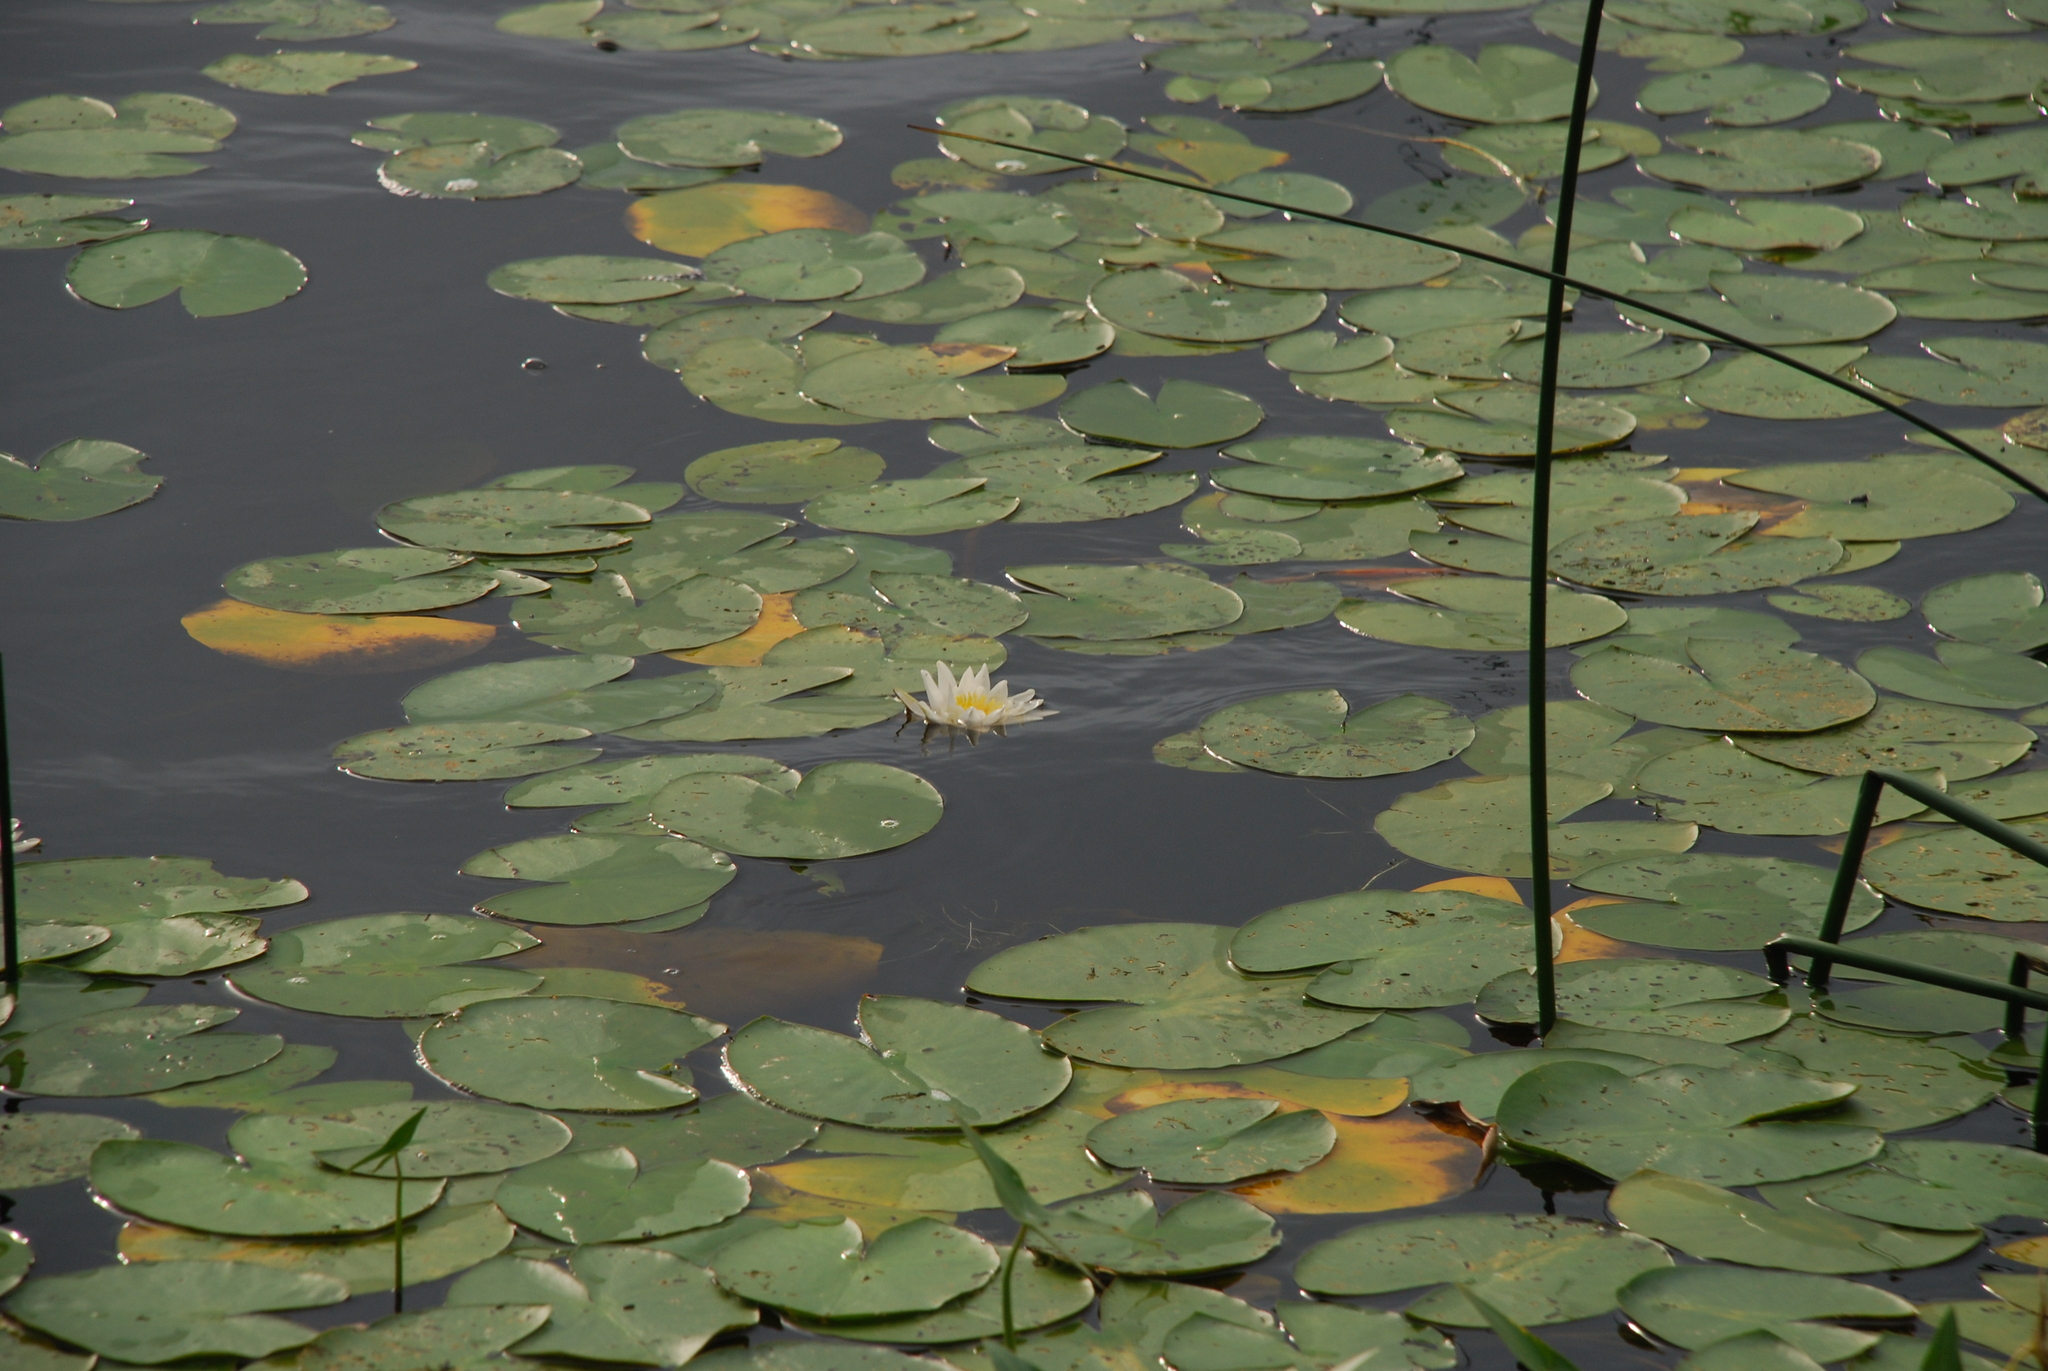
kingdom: Plantae
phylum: Tracheophyta
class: Magnoliopsida
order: Nymphaeales
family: Nymphaeaceae
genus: Nymphaea
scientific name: Nymphaea candida
